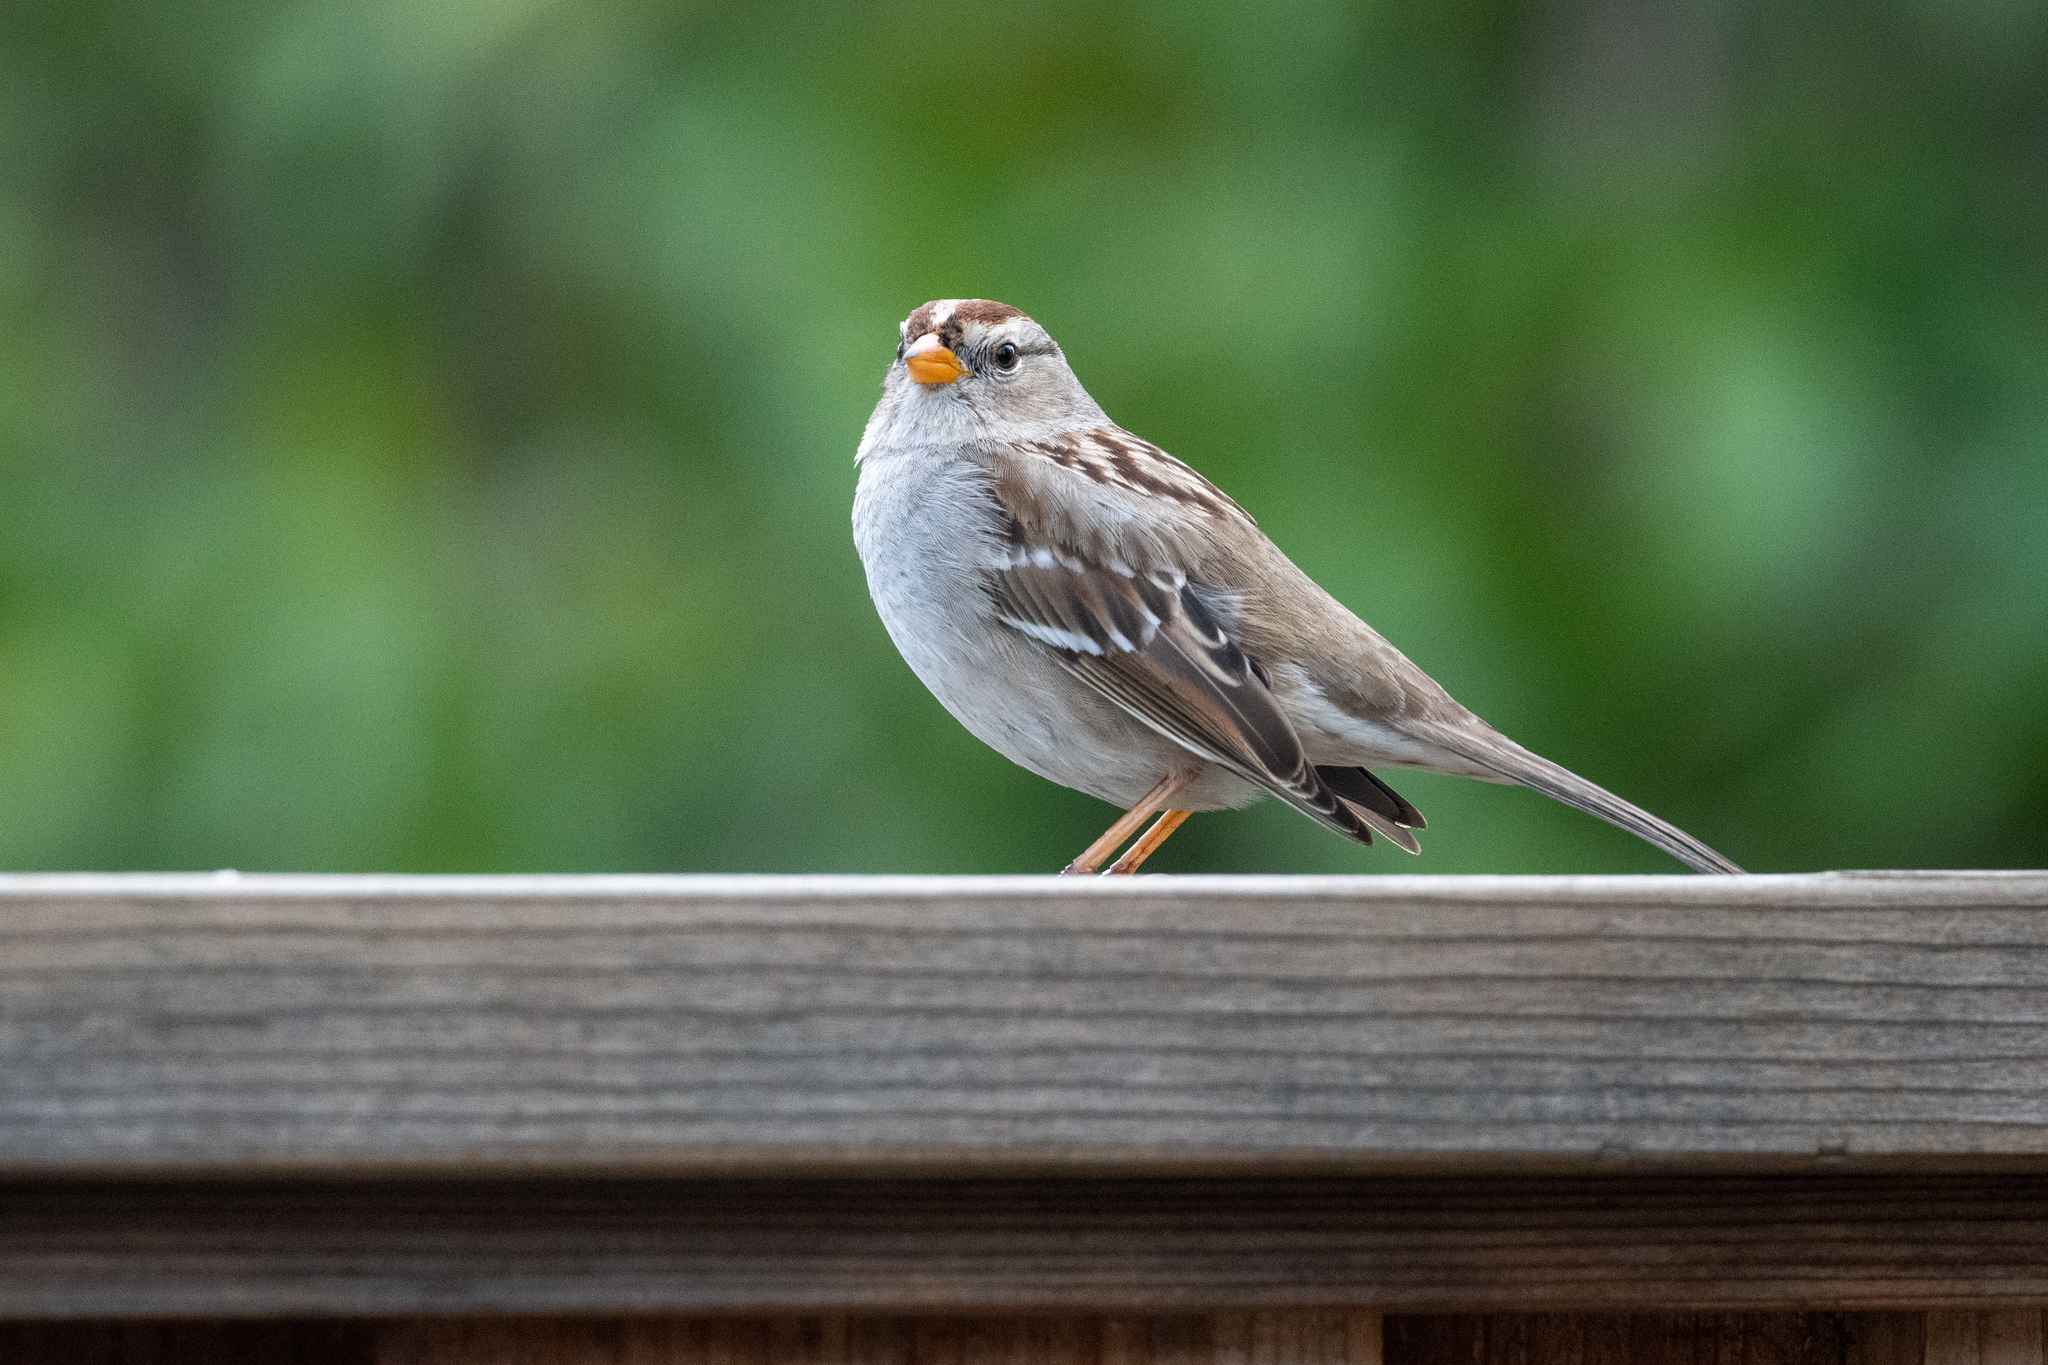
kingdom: Animalia
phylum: Chordata
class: Aves
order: Passeriformes
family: Passerellidae
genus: Zonotrichia
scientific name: Zonotrichia leucophrys
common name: White-crowned sparrow
